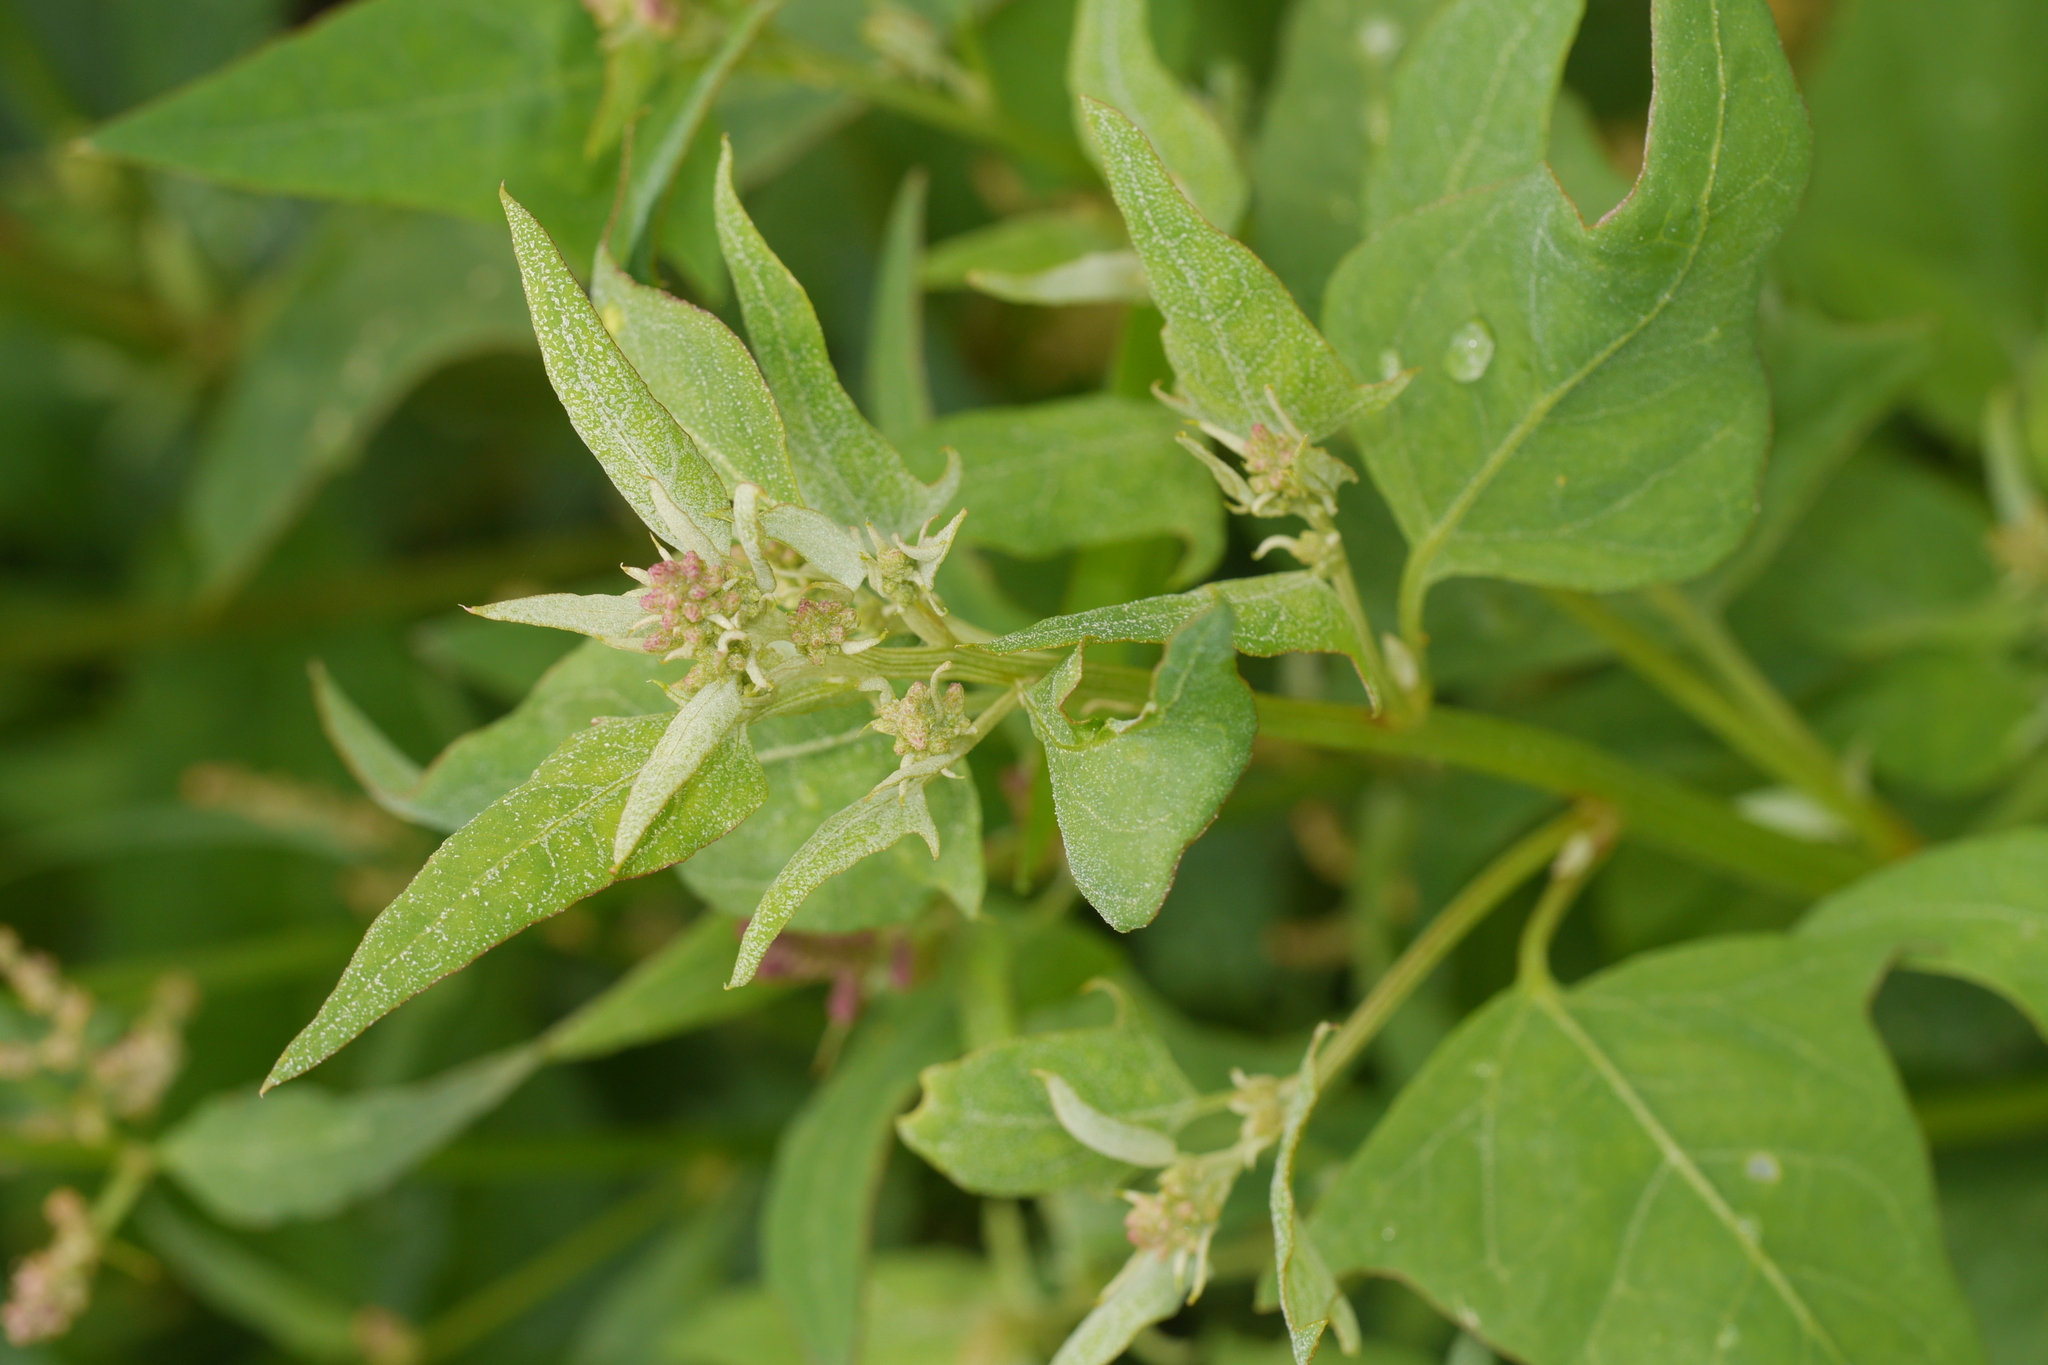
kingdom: Plantae
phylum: Tracheophyta
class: Magnoliopsida
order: Caryophyllales
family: Amaranthaceae
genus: Atriplex
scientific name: Atriplex prostrata
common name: Spear-leaved orache
